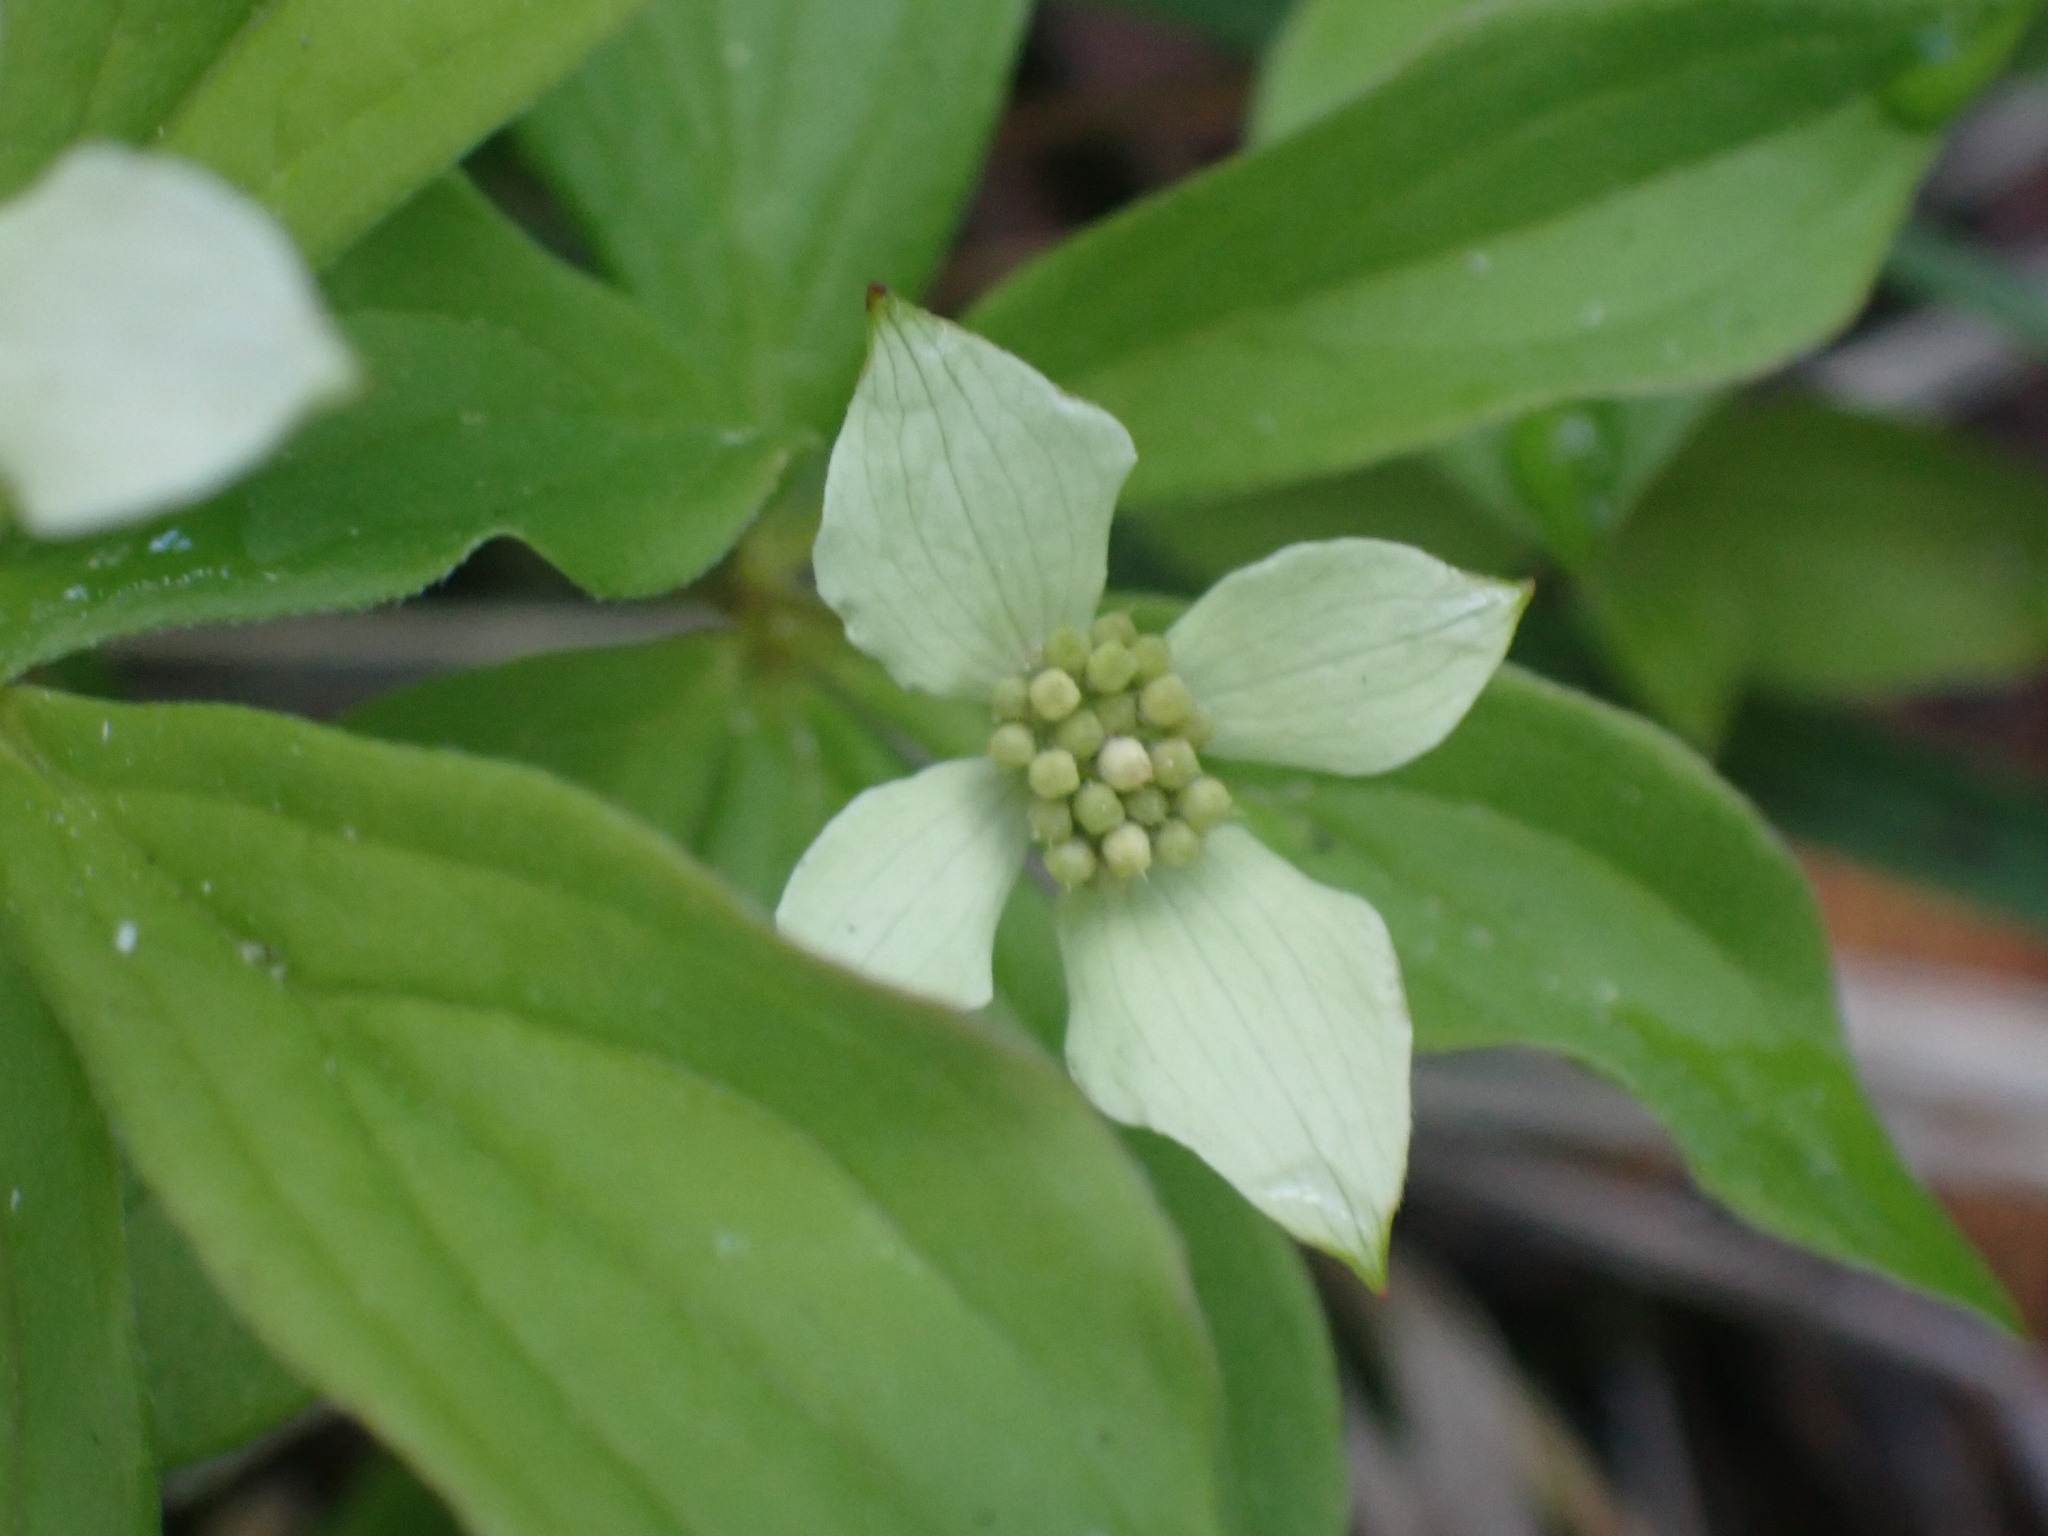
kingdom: Plantae
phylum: Tracheophyta
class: Magnoliopsida
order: Cornales
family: Cornaceae
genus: Cornus
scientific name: Cornus canadensis
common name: Creeping dogwood
